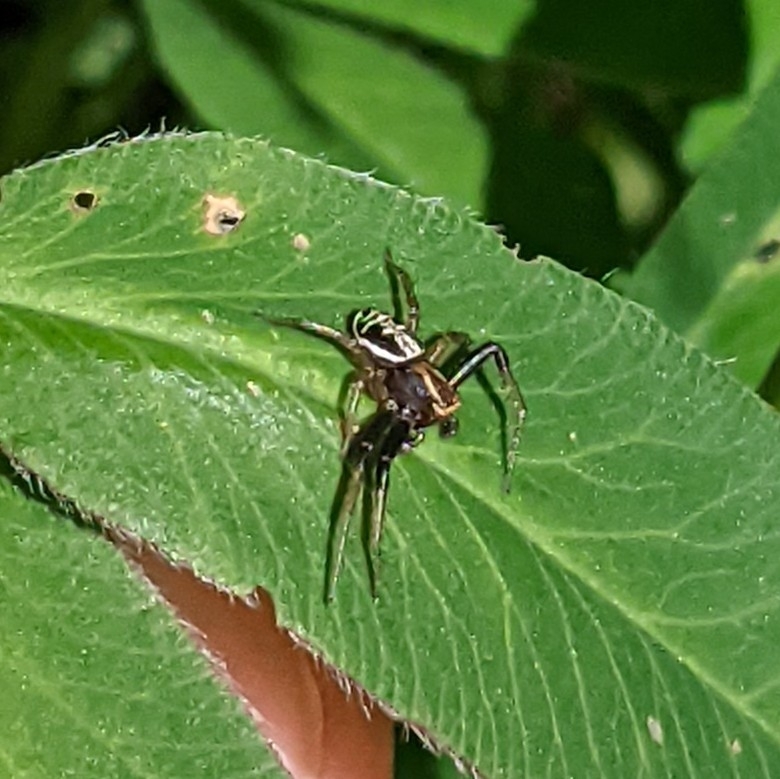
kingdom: Animalia
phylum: Arthropoda
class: Arachnida
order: Araneae
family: Thomisidae
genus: Xysticus
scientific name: Xysticus ulmi
